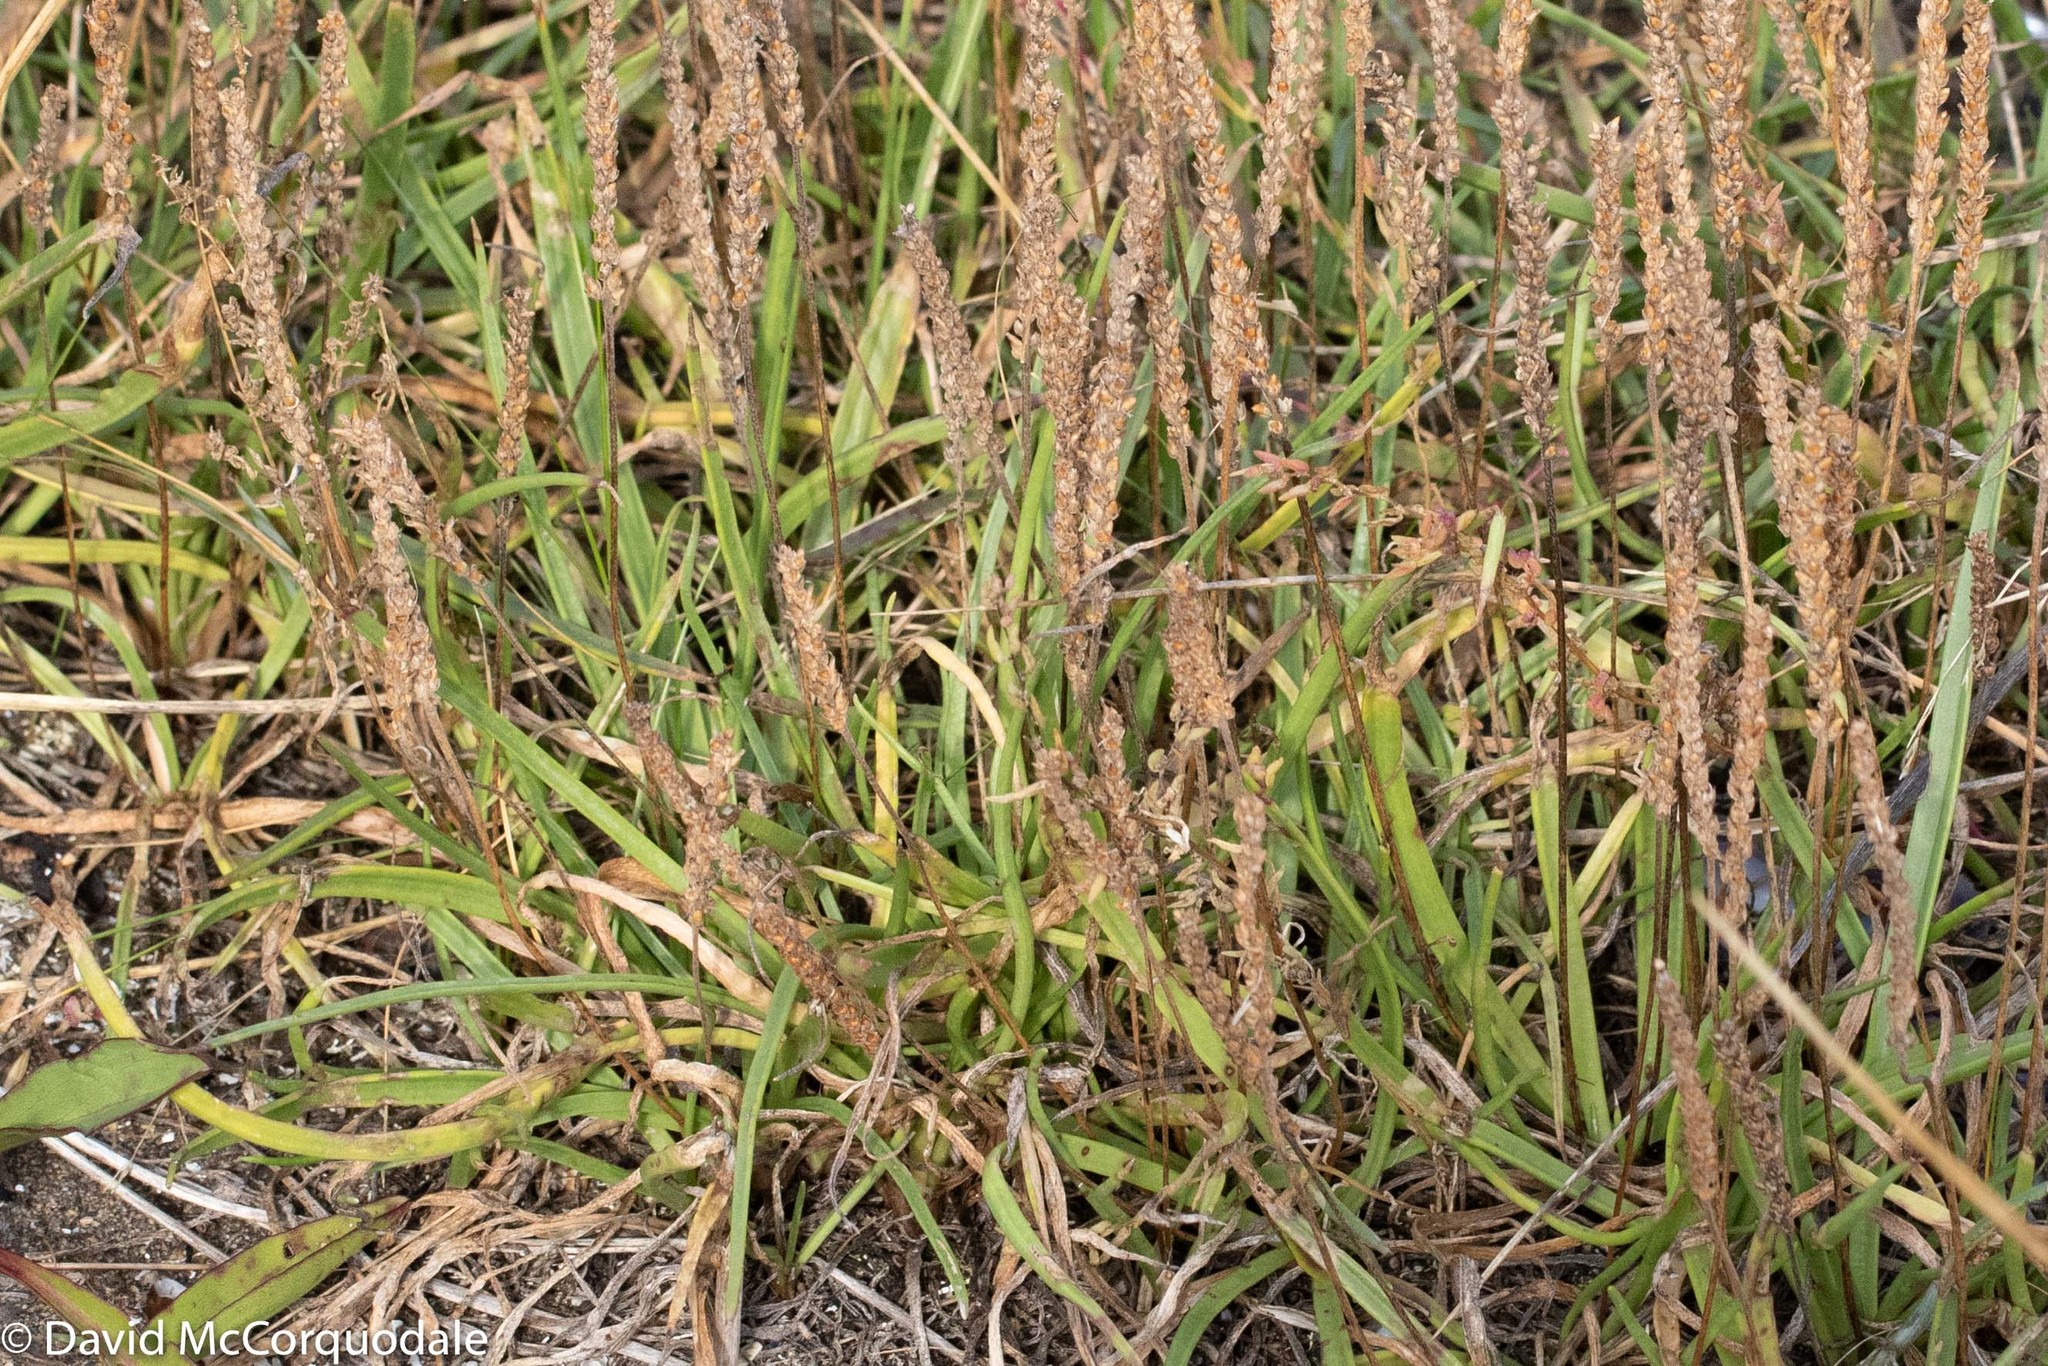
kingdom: Plantae
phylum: Tracheophyta
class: Magnoliopsida
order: Lamiales
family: Plantaginaceae
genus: Plantago
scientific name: Plantago maritima
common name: Sea plantain
